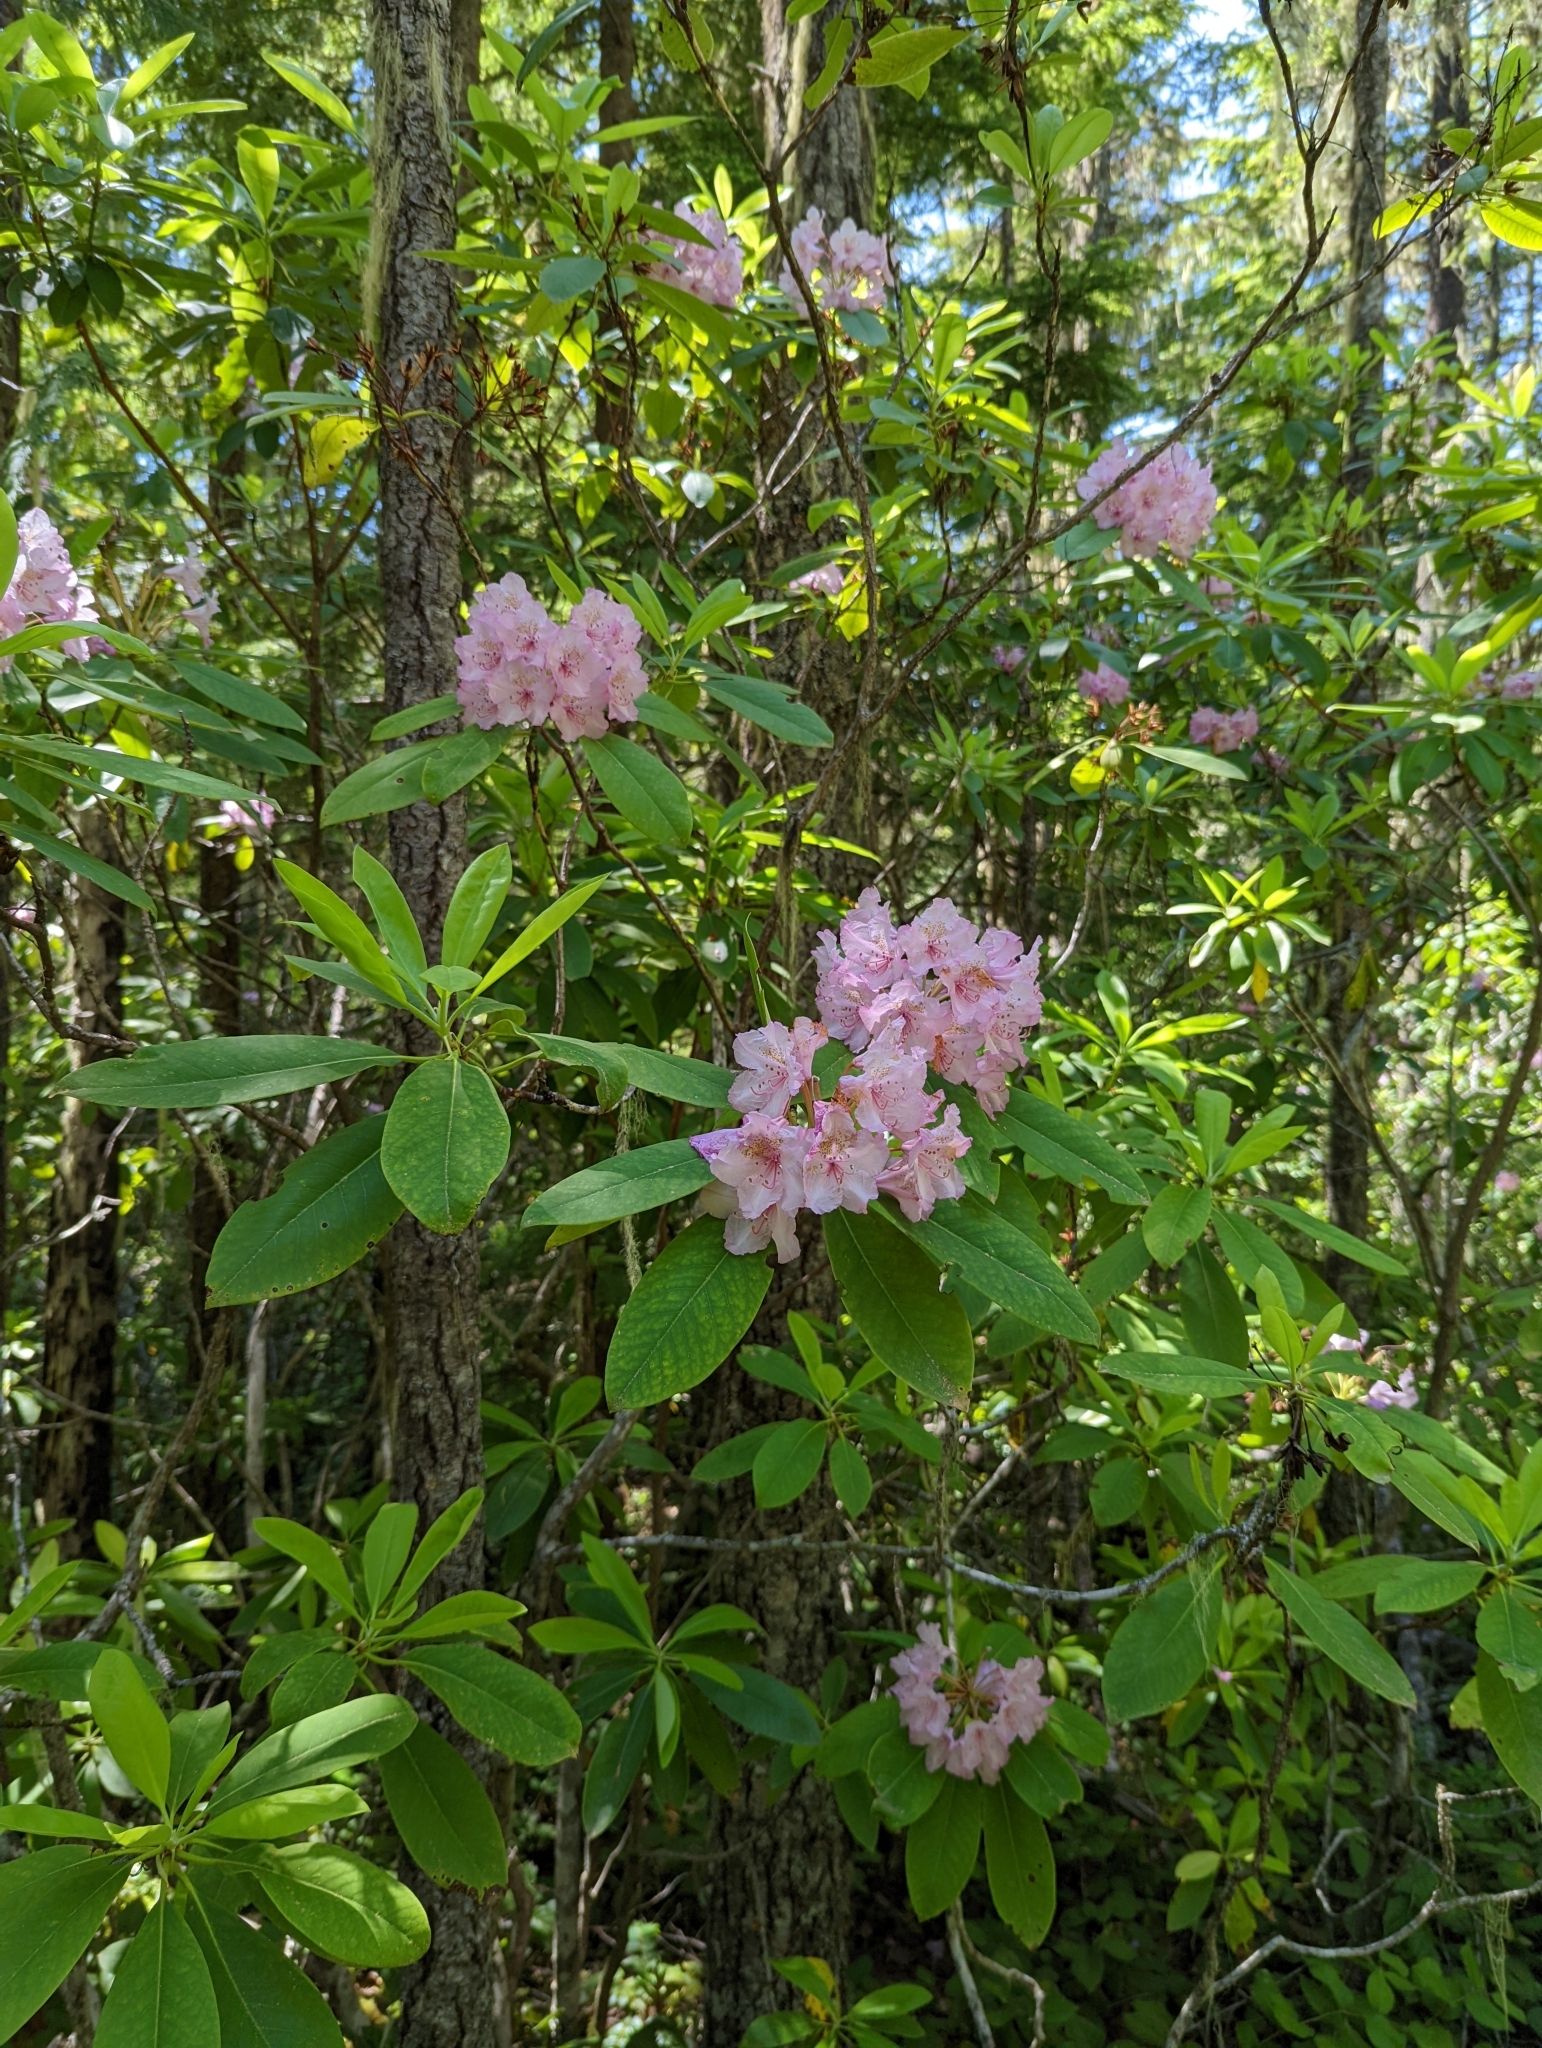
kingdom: Plantae
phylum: Tracheophyta
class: Magnoliopsida
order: Ericales
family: Ericaceae
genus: Rhododendron
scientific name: Rhododendron macrophyllum
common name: California rose bay
